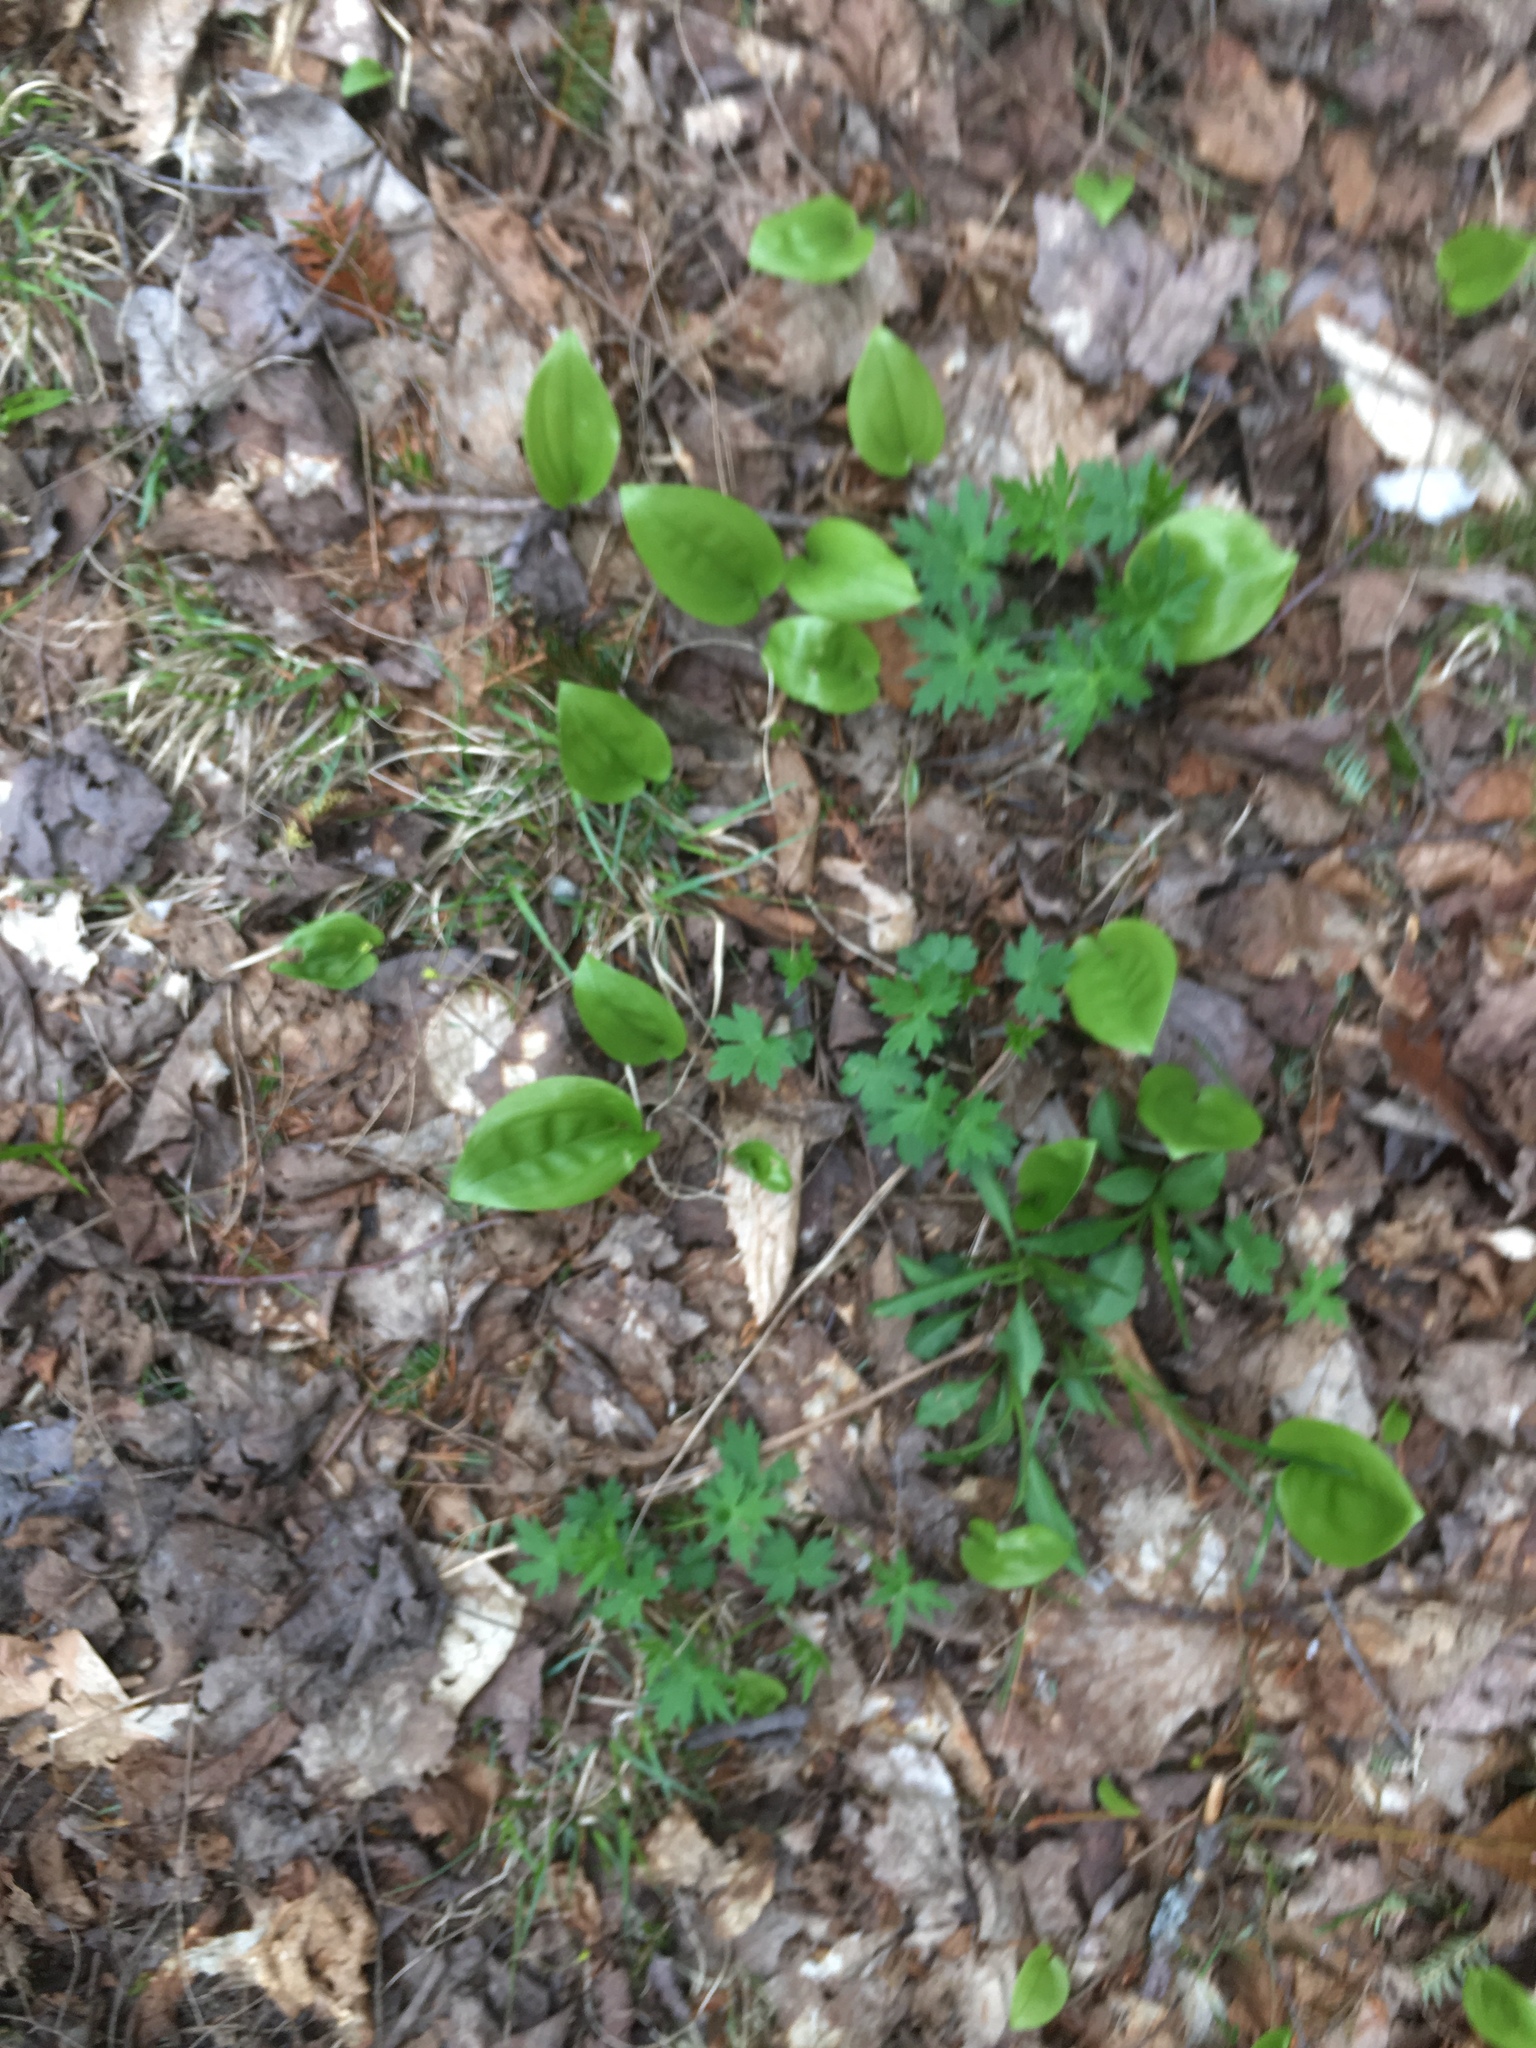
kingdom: Plantae
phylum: Tracheophyta
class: Liliopsida
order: Asparagales
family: Asparagaceae
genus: Maianthemum
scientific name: Maianthemum canadense
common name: False lily-of-the-valley
